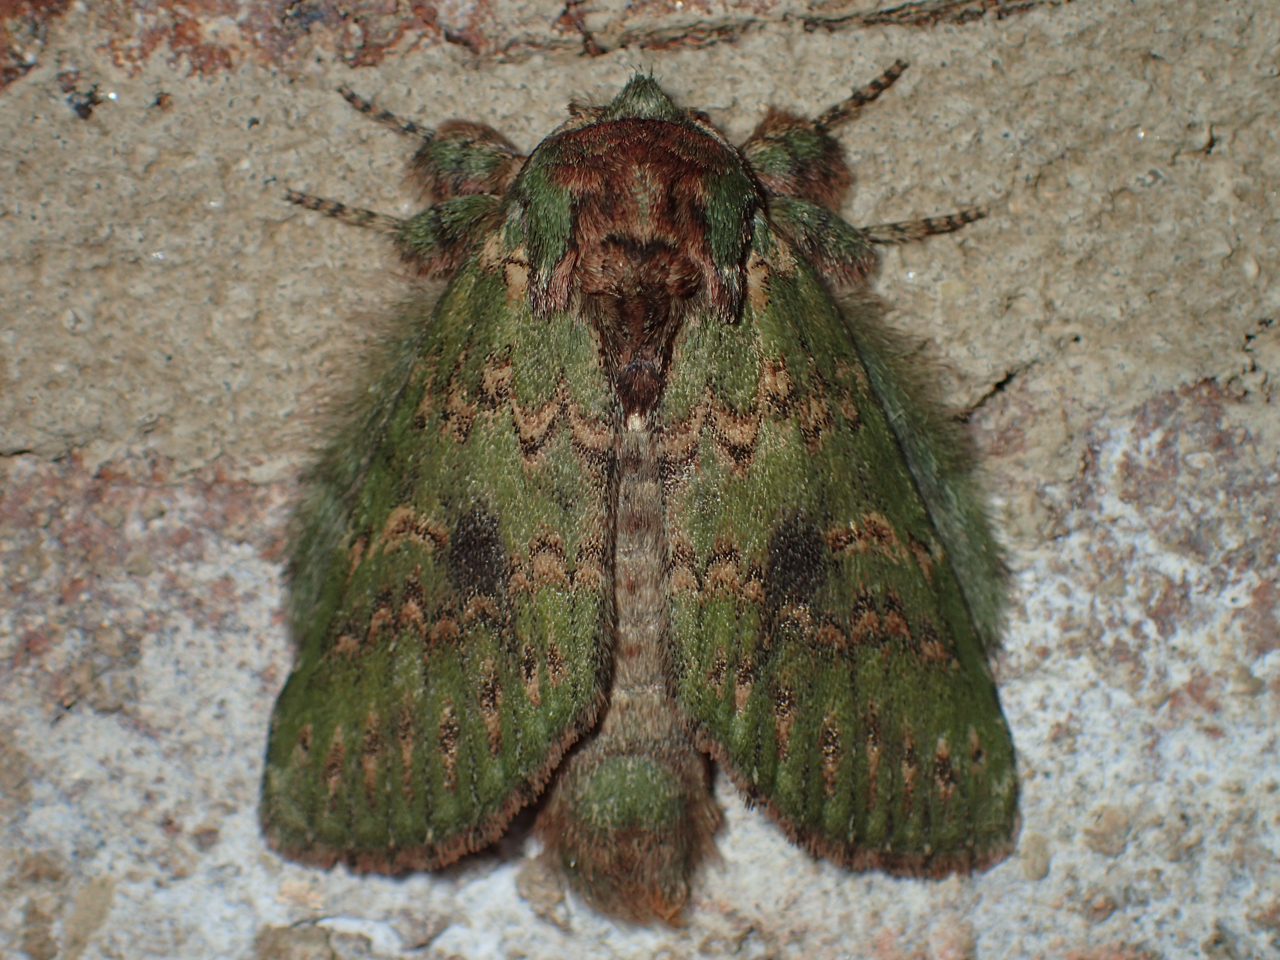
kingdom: Animalia
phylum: Arthropoda
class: Insecta
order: Lepidoptera
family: Notodontidae
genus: Disphragis
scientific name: Disphragis Cecrita biundata
